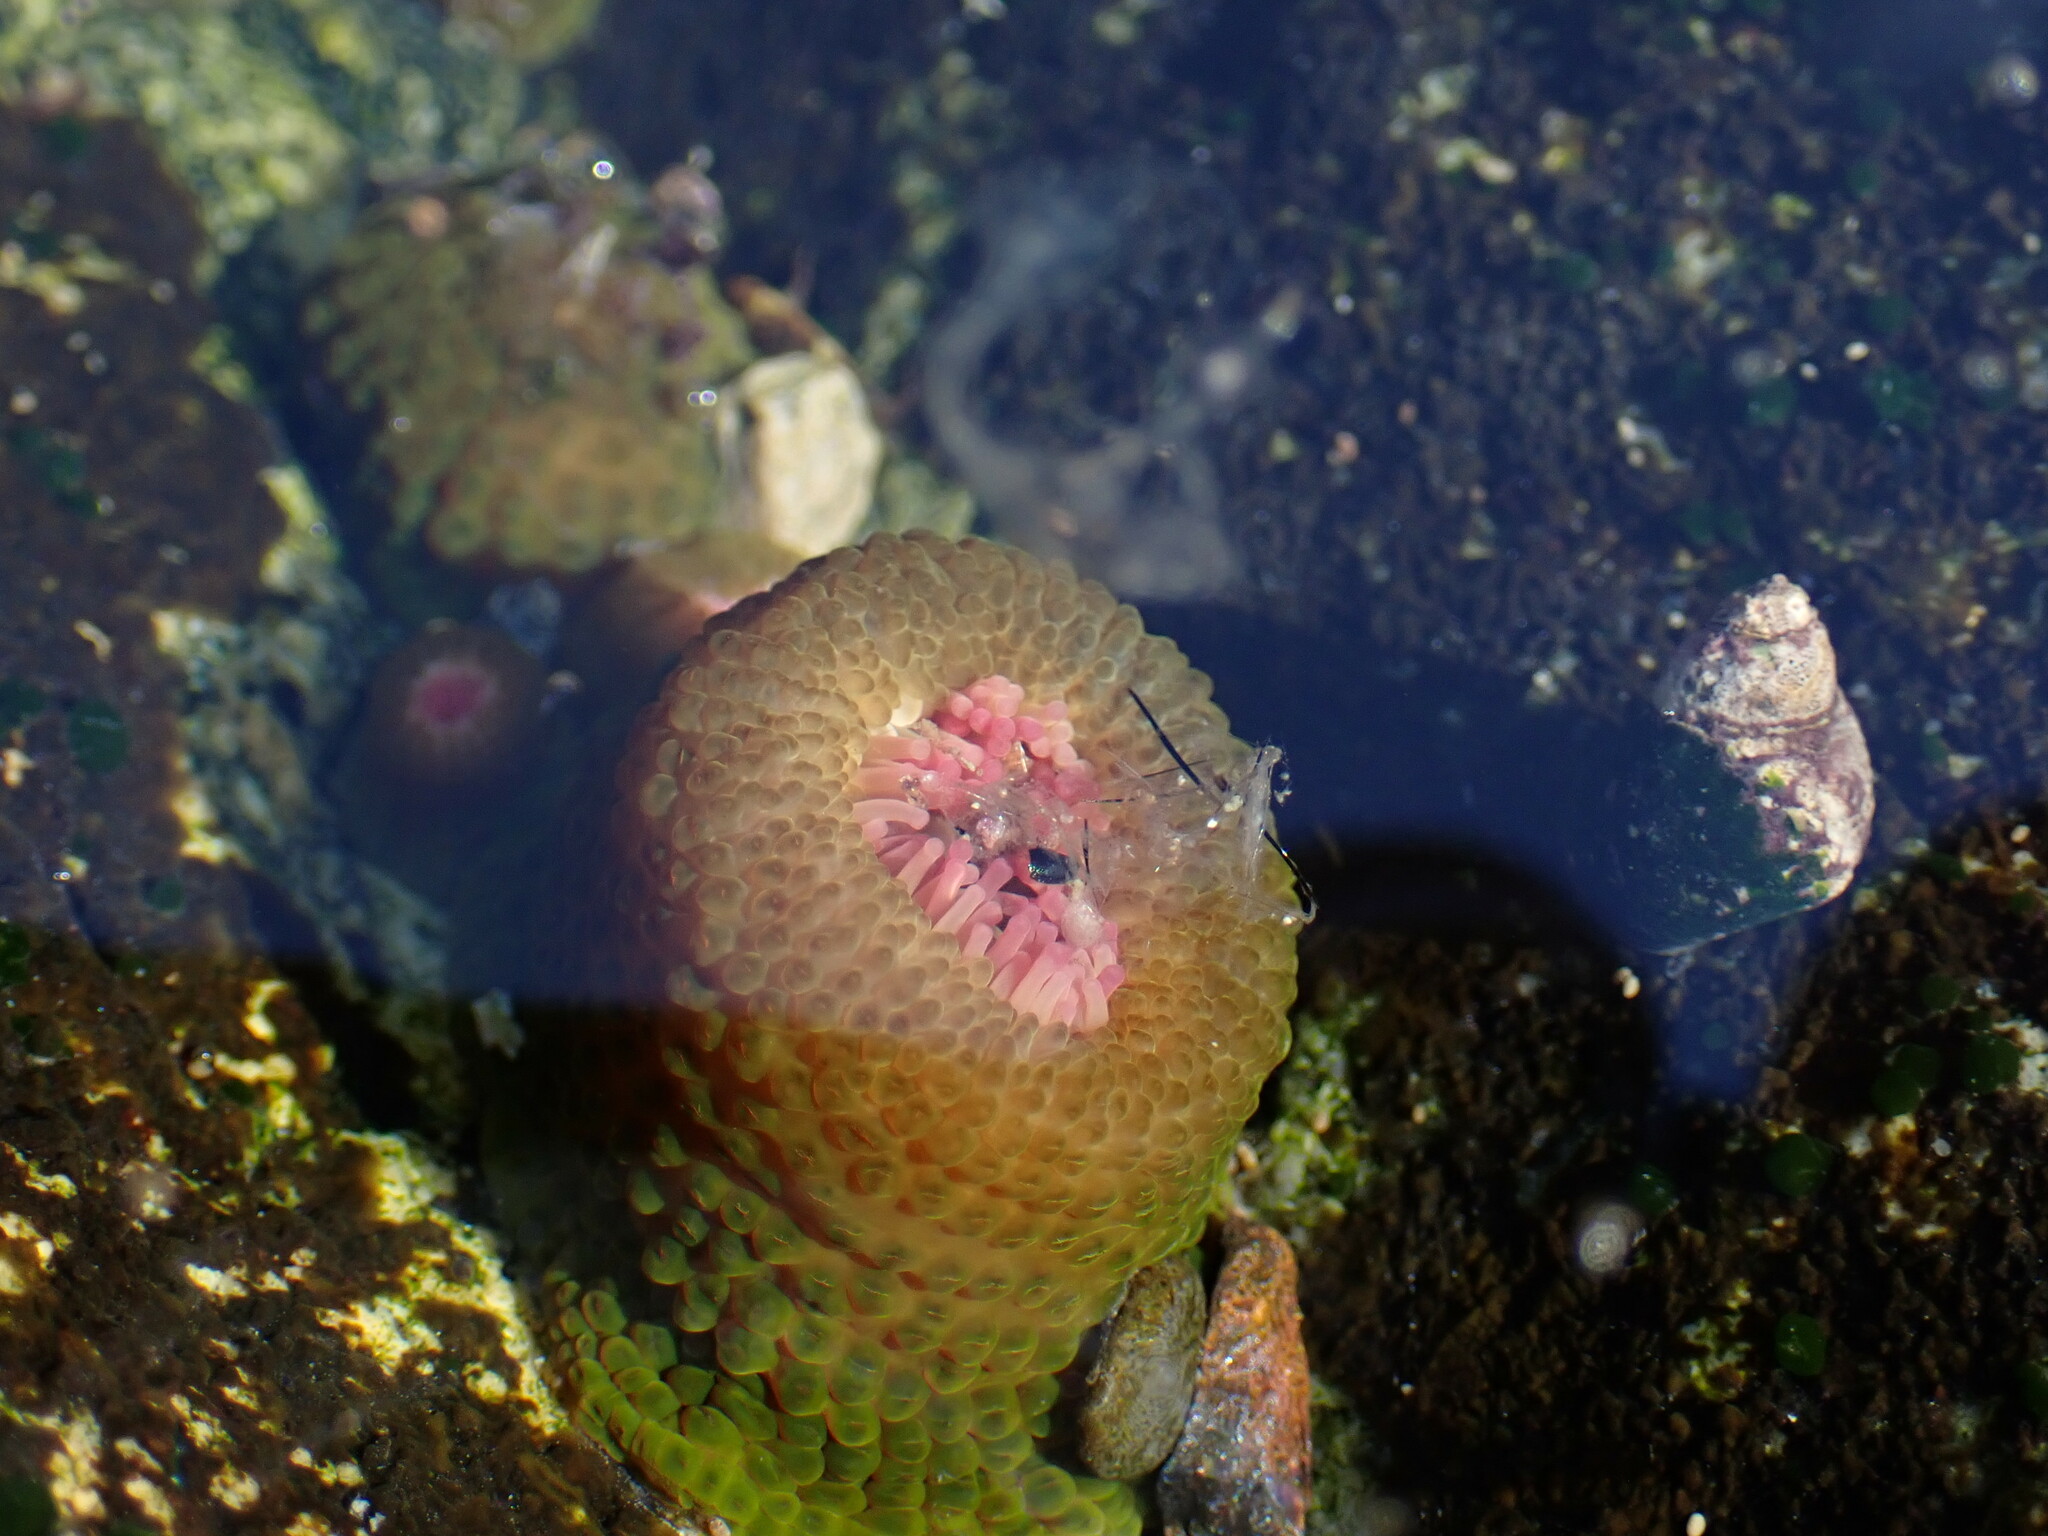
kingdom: Animalia
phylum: Cnidaria
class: Anthozoa
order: Actiniaria
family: Actiniidae
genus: Anthopleura
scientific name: Anthopleura elegantissima
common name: Clonal anemone
